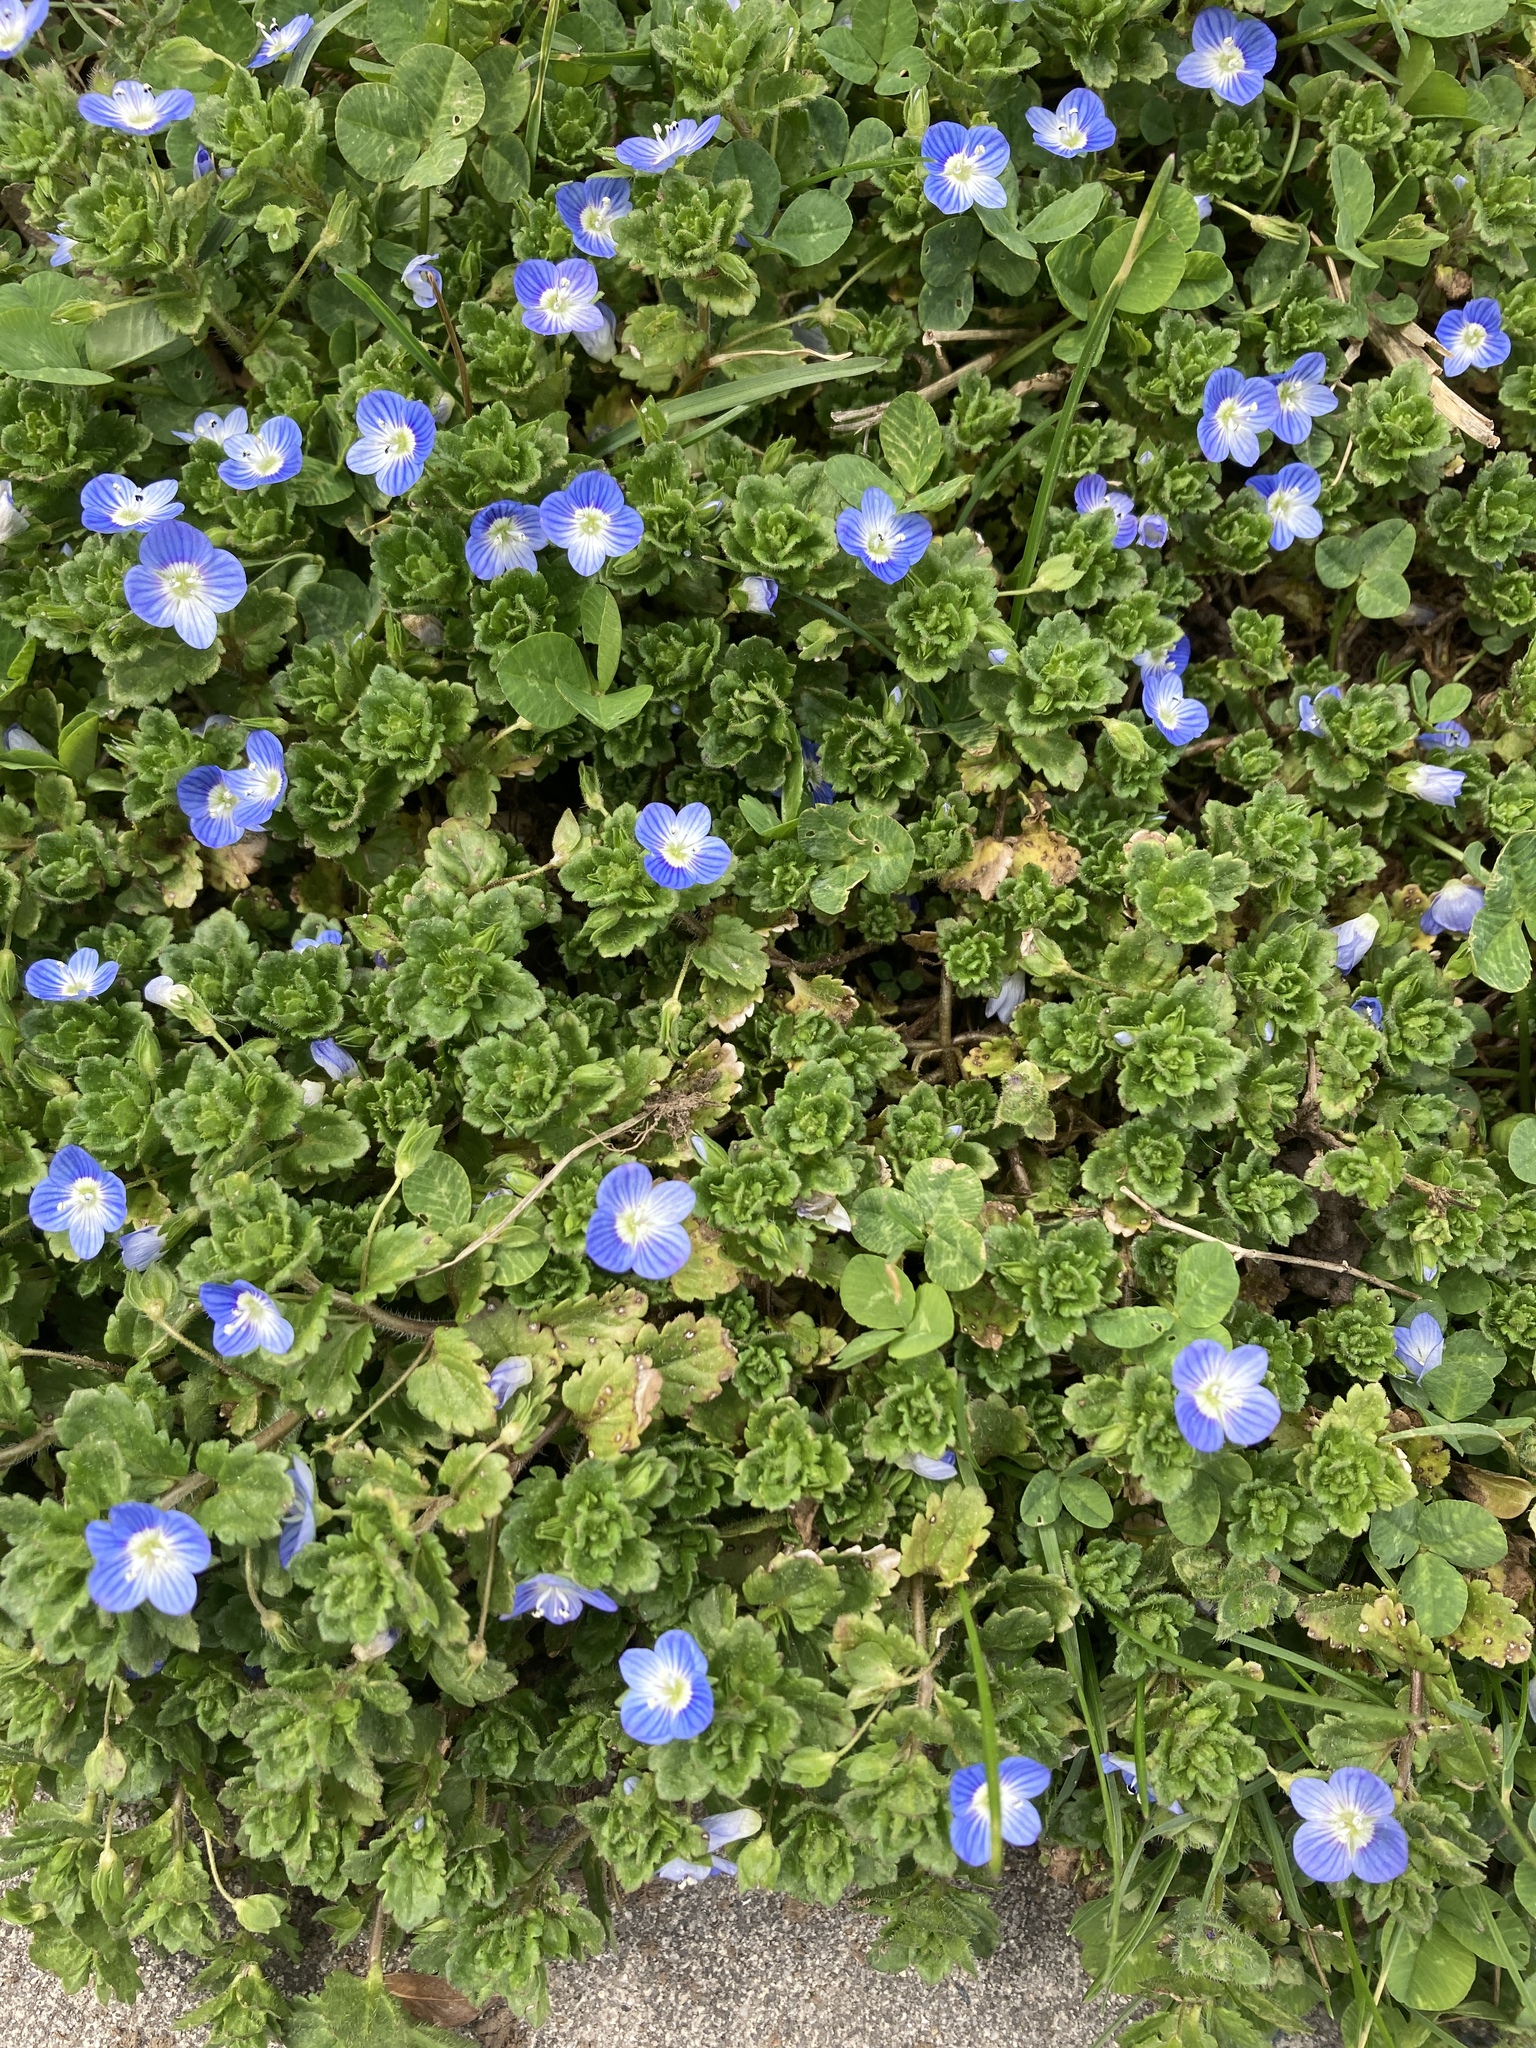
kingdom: Plantae
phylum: Tracheophyta
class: Magnoliopsida
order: Lamiales
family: Plantaginaceae
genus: Veronica
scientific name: Veronica persica
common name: Common field-speedwell
